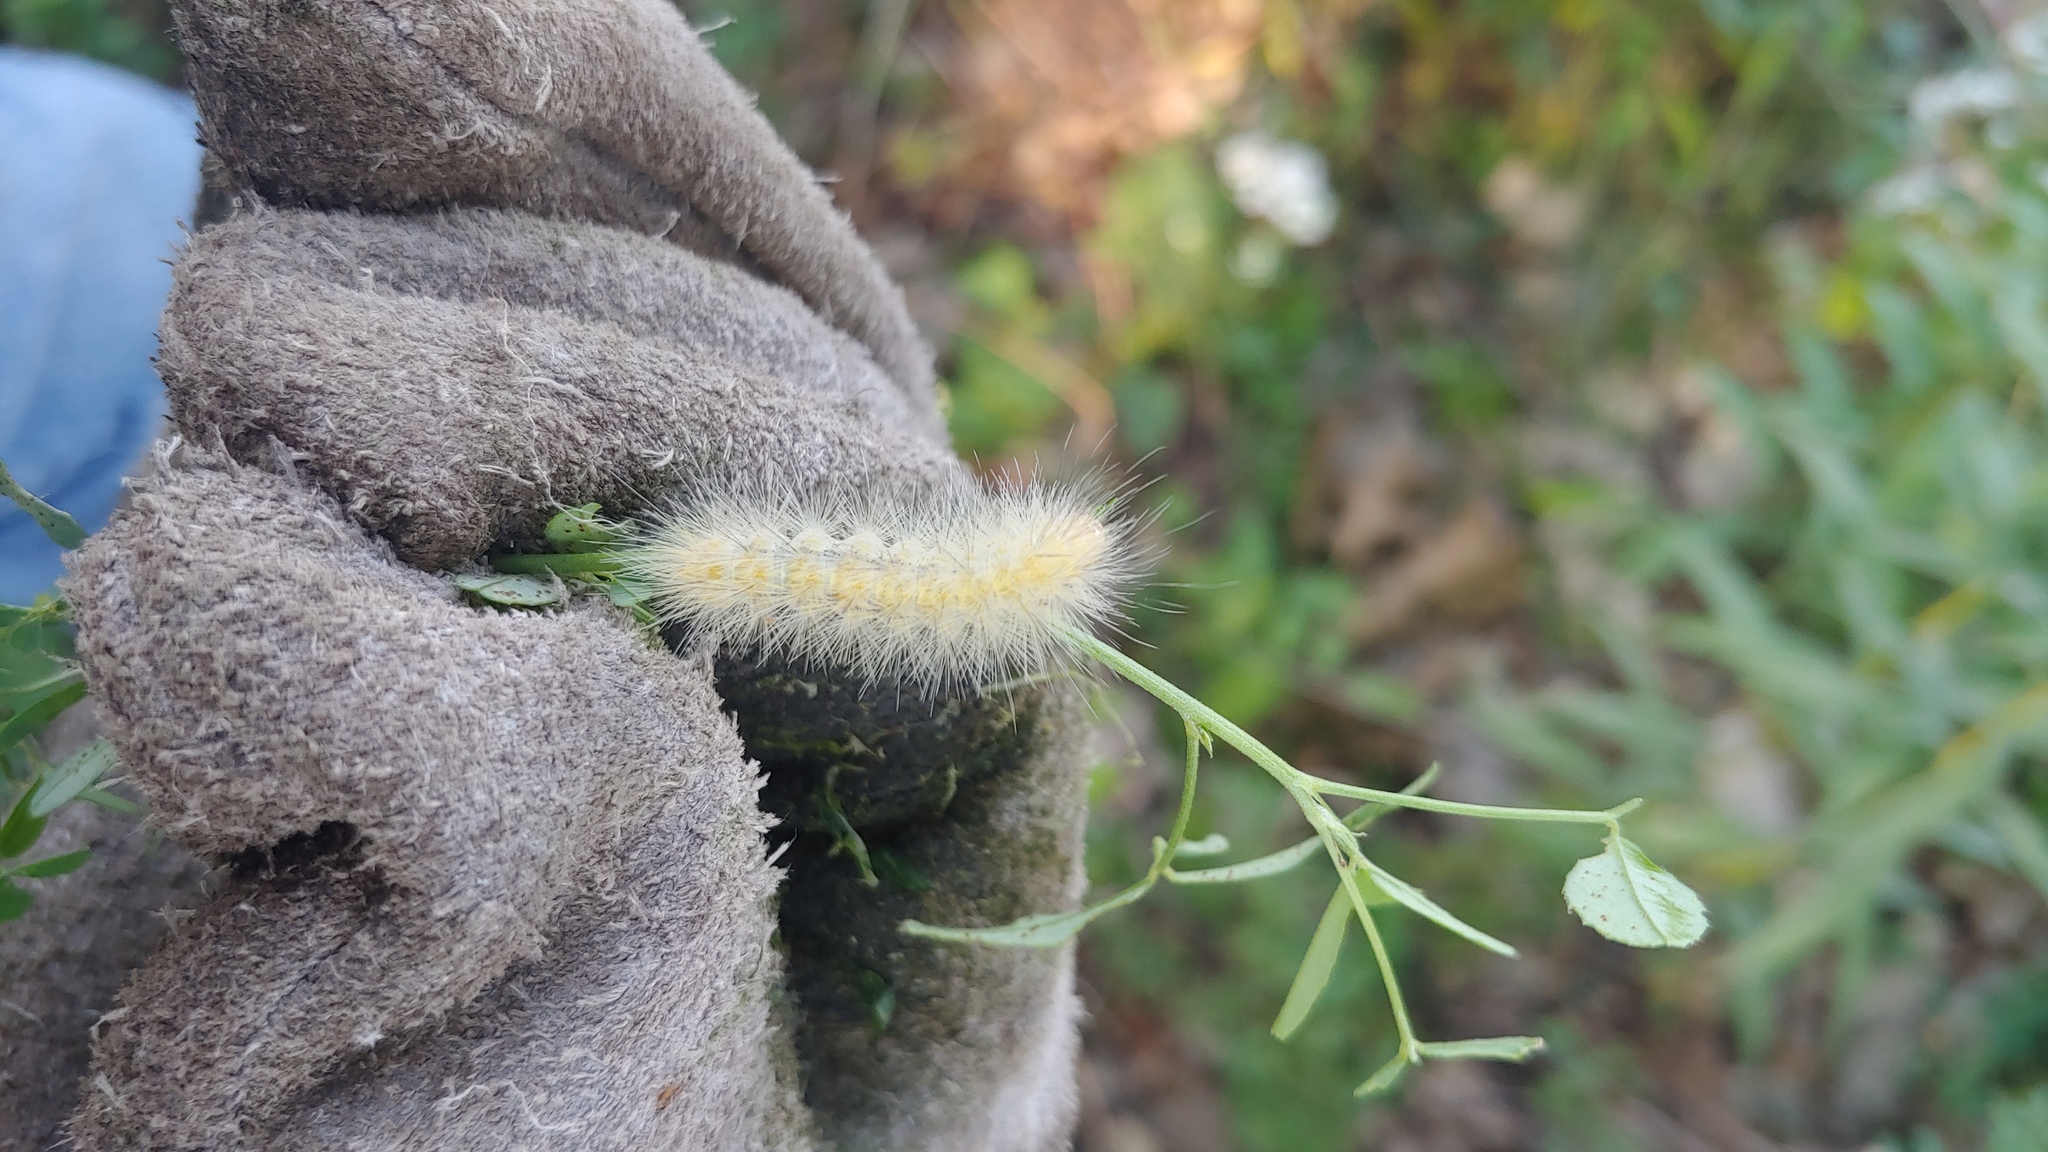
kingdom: Animalia
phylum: Arthropoda
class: Insecta
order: Lepidoptera
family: Erebidae
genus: Spilosoma
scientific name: Spilosoma virginica
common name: Virginia tiger moth
